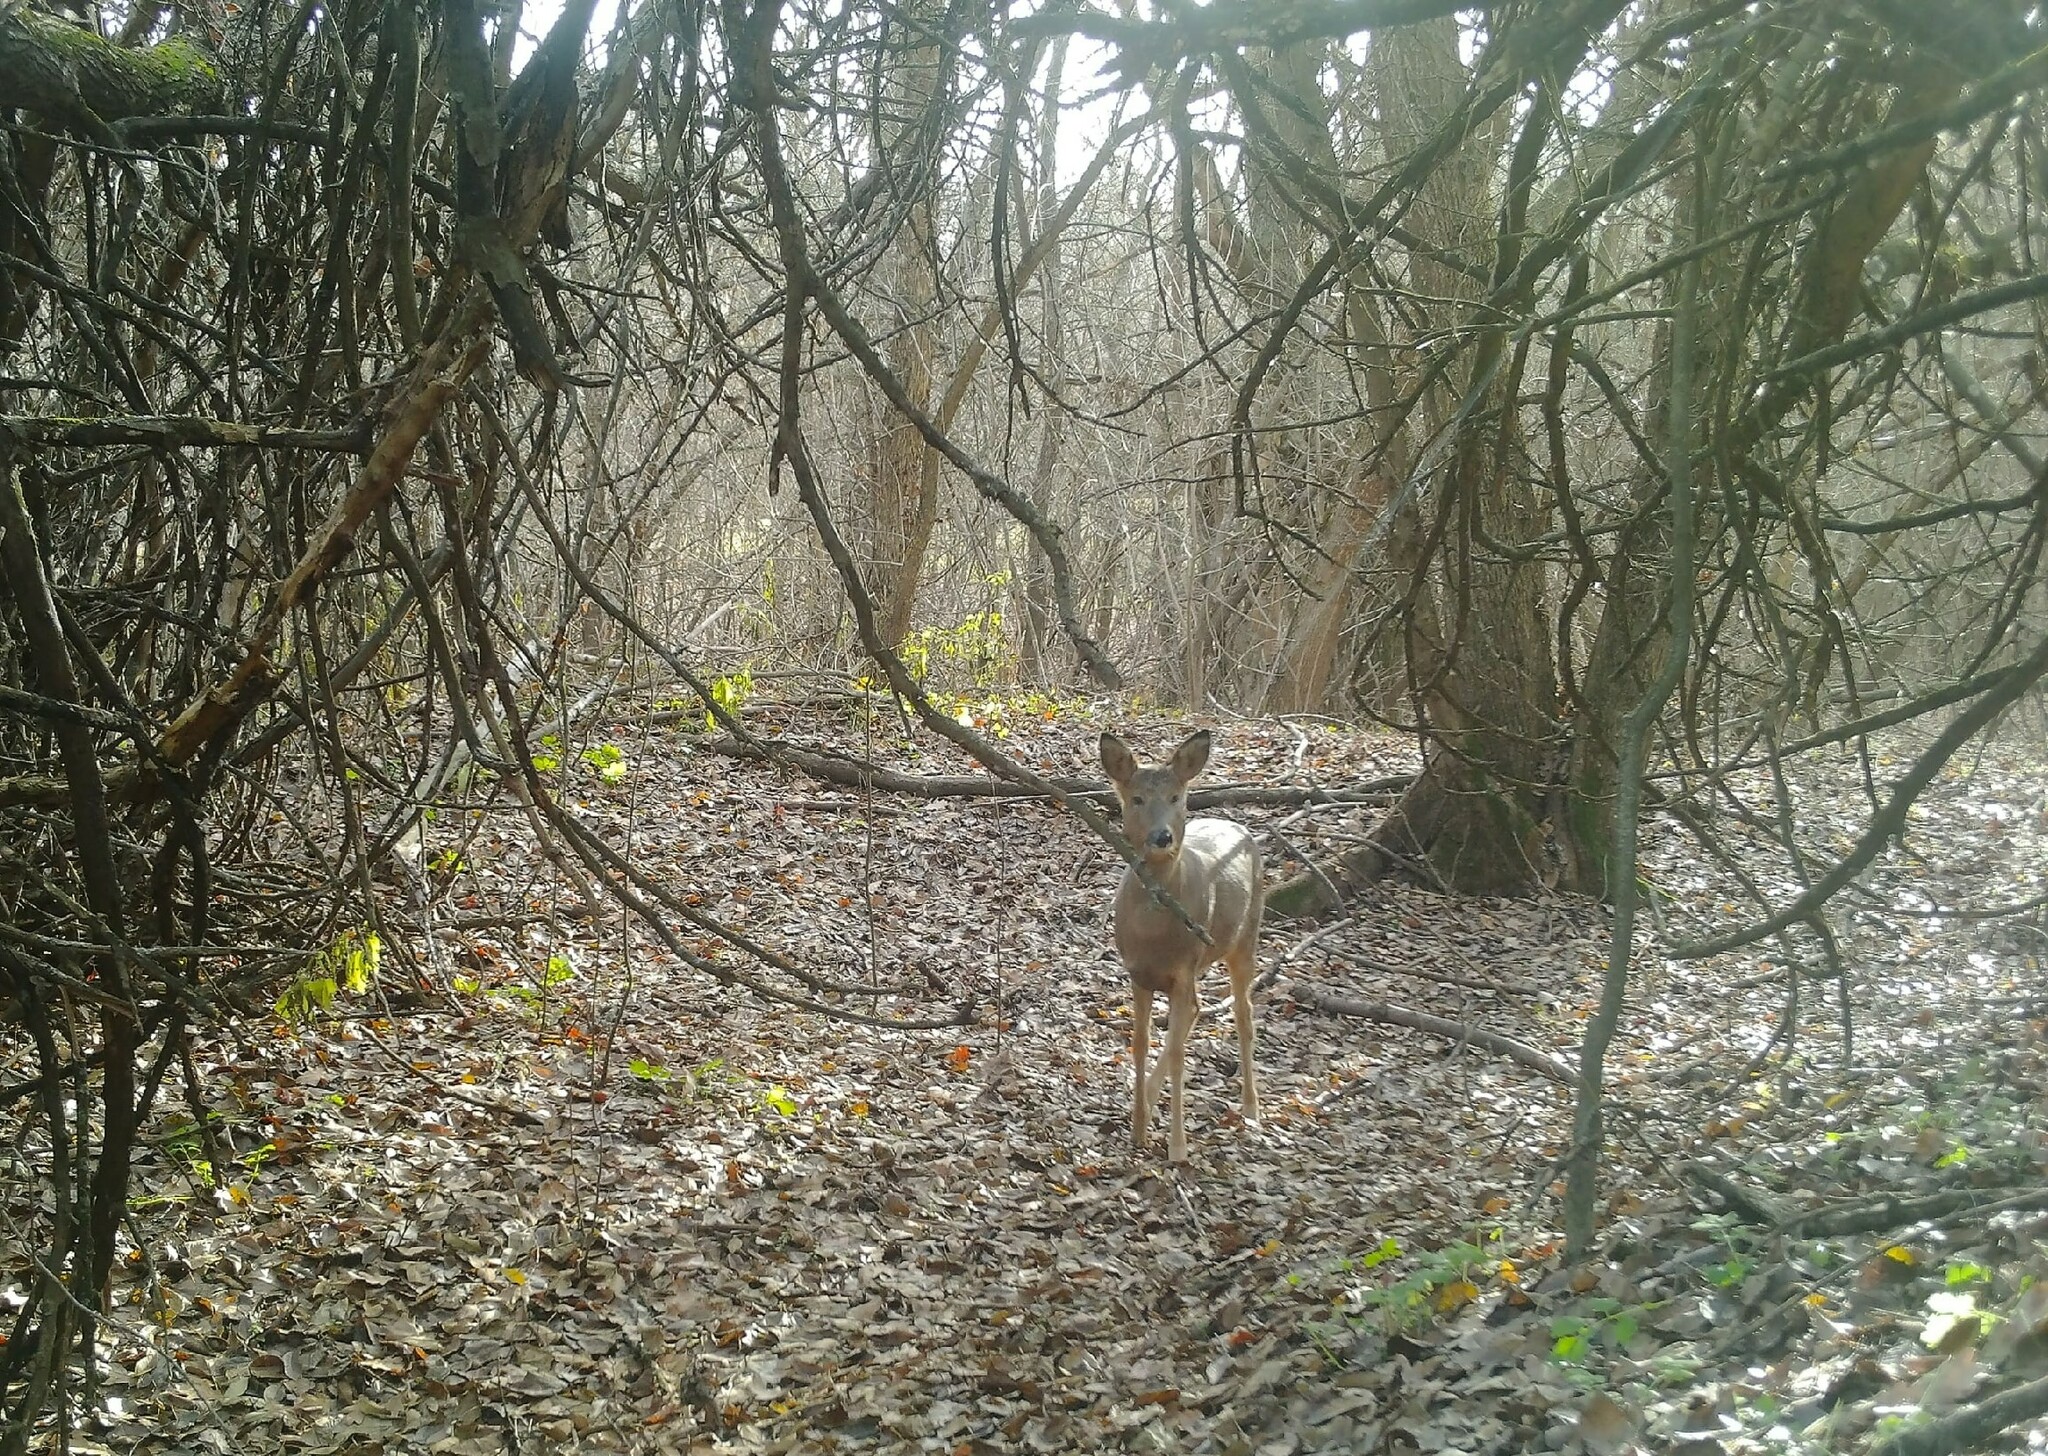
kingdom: Animalia
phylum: Chordata
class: Mammalia
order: Artiodactyla
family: Cervidae
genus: Capreolus
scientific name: Capreolus pygargus
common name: Siberian roe
